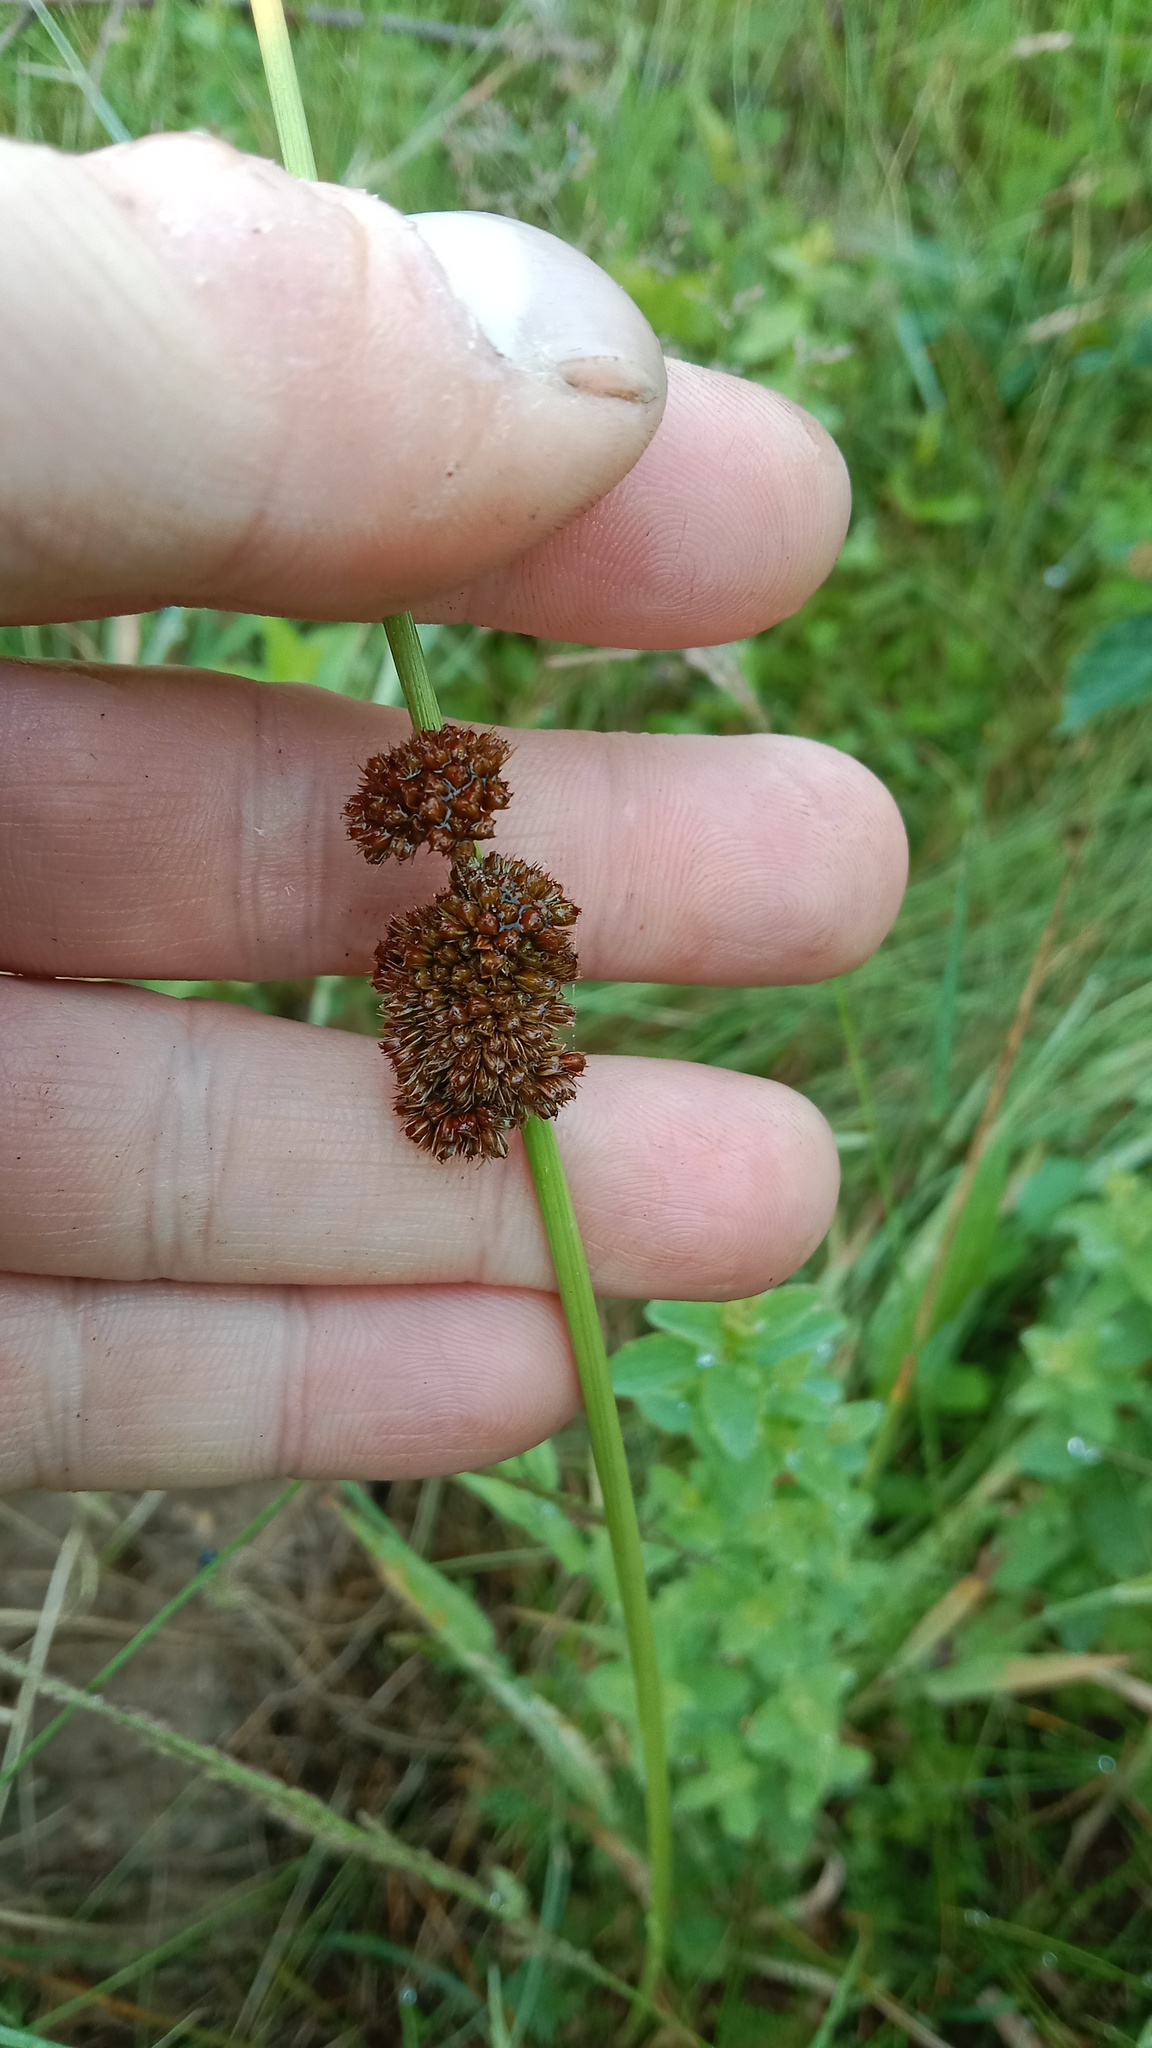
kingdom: Plantae
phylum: Tracheophyta
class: Liliopsida
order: Poales
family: Juncaceae
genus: Juncus
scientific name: Juncus conglomeratus
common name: Compact rush
